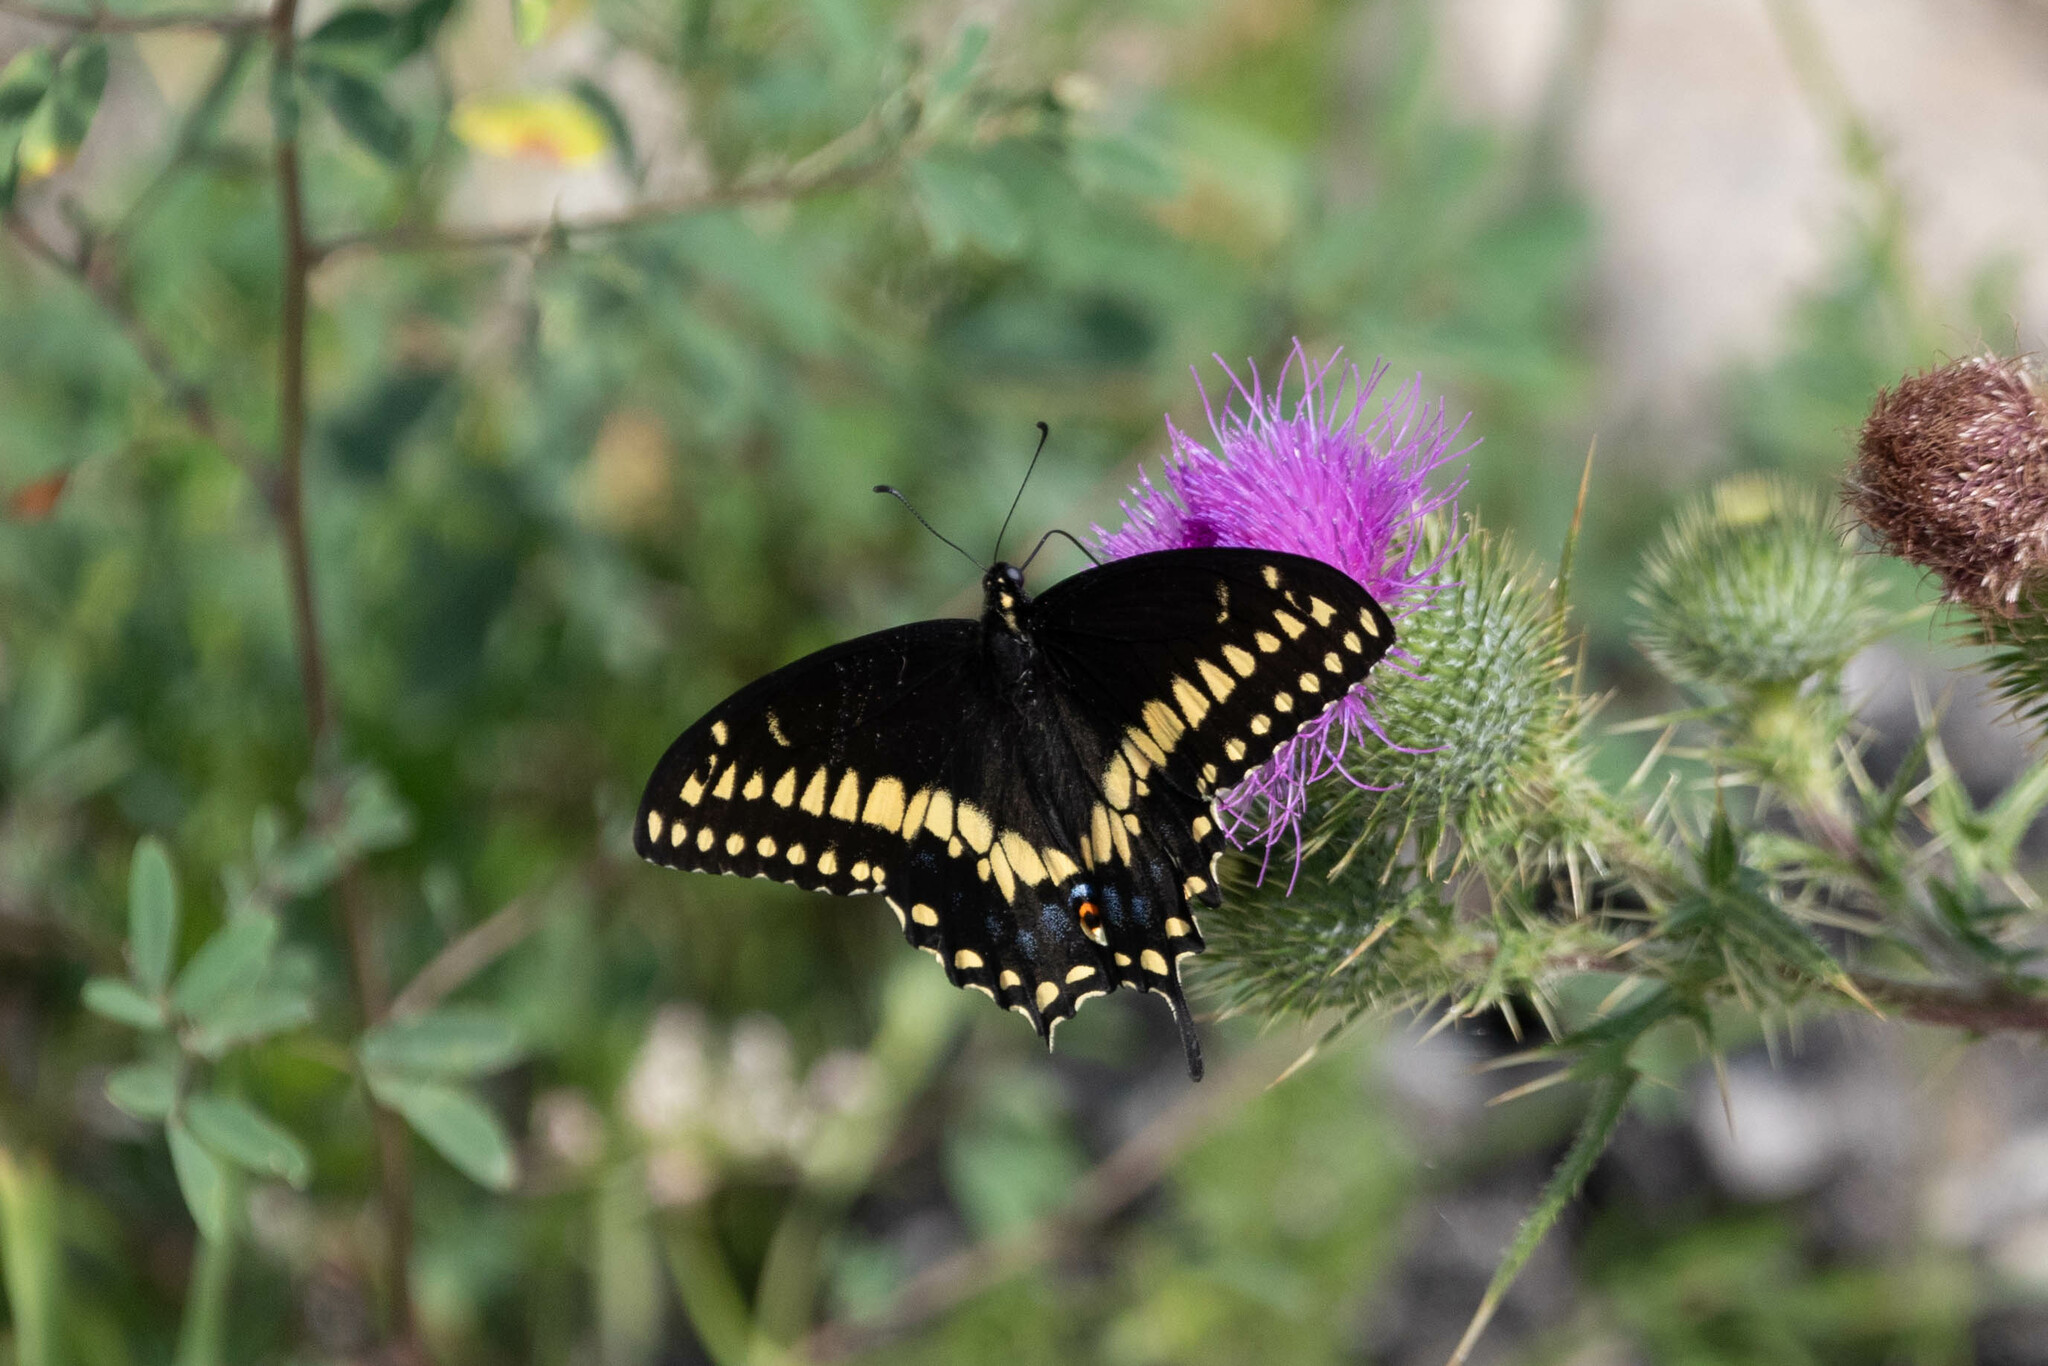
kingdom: Animalia
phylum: Arthropoda
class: Insecta
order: Lepidoptera
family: Papilionidae
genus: Papilio
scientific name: Papilio polyxenes
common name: Black swallowtail
